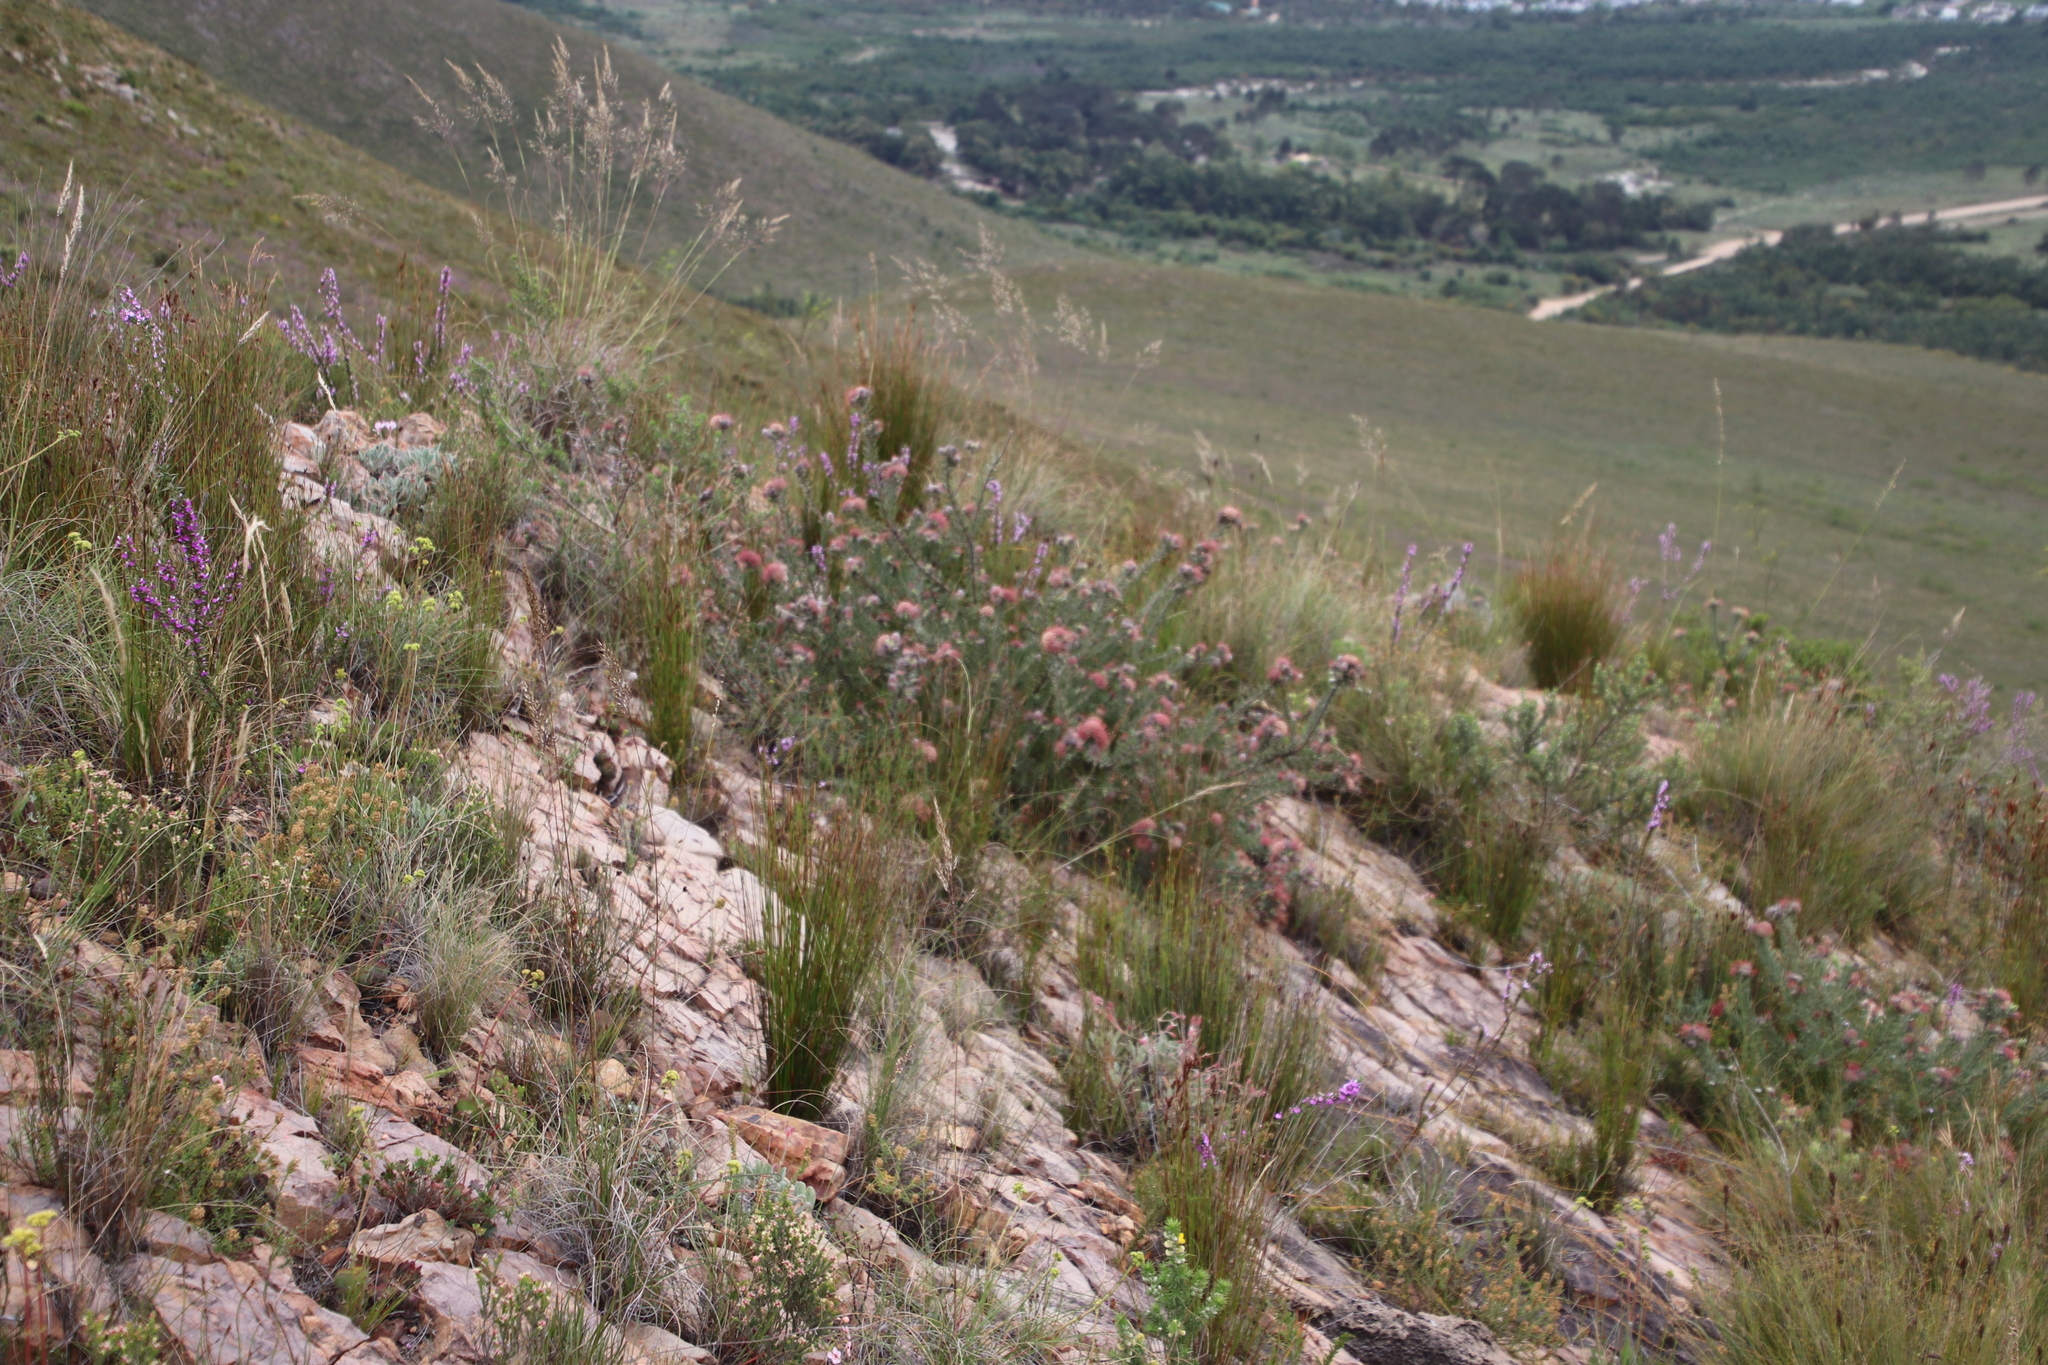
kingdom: Plantae
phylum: Tracheophyta
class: Magnoliopsida
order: Proteales
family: Proteaceae
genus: Leucospermum
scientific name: Leucospermum calligerum
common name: Arid pincushion
